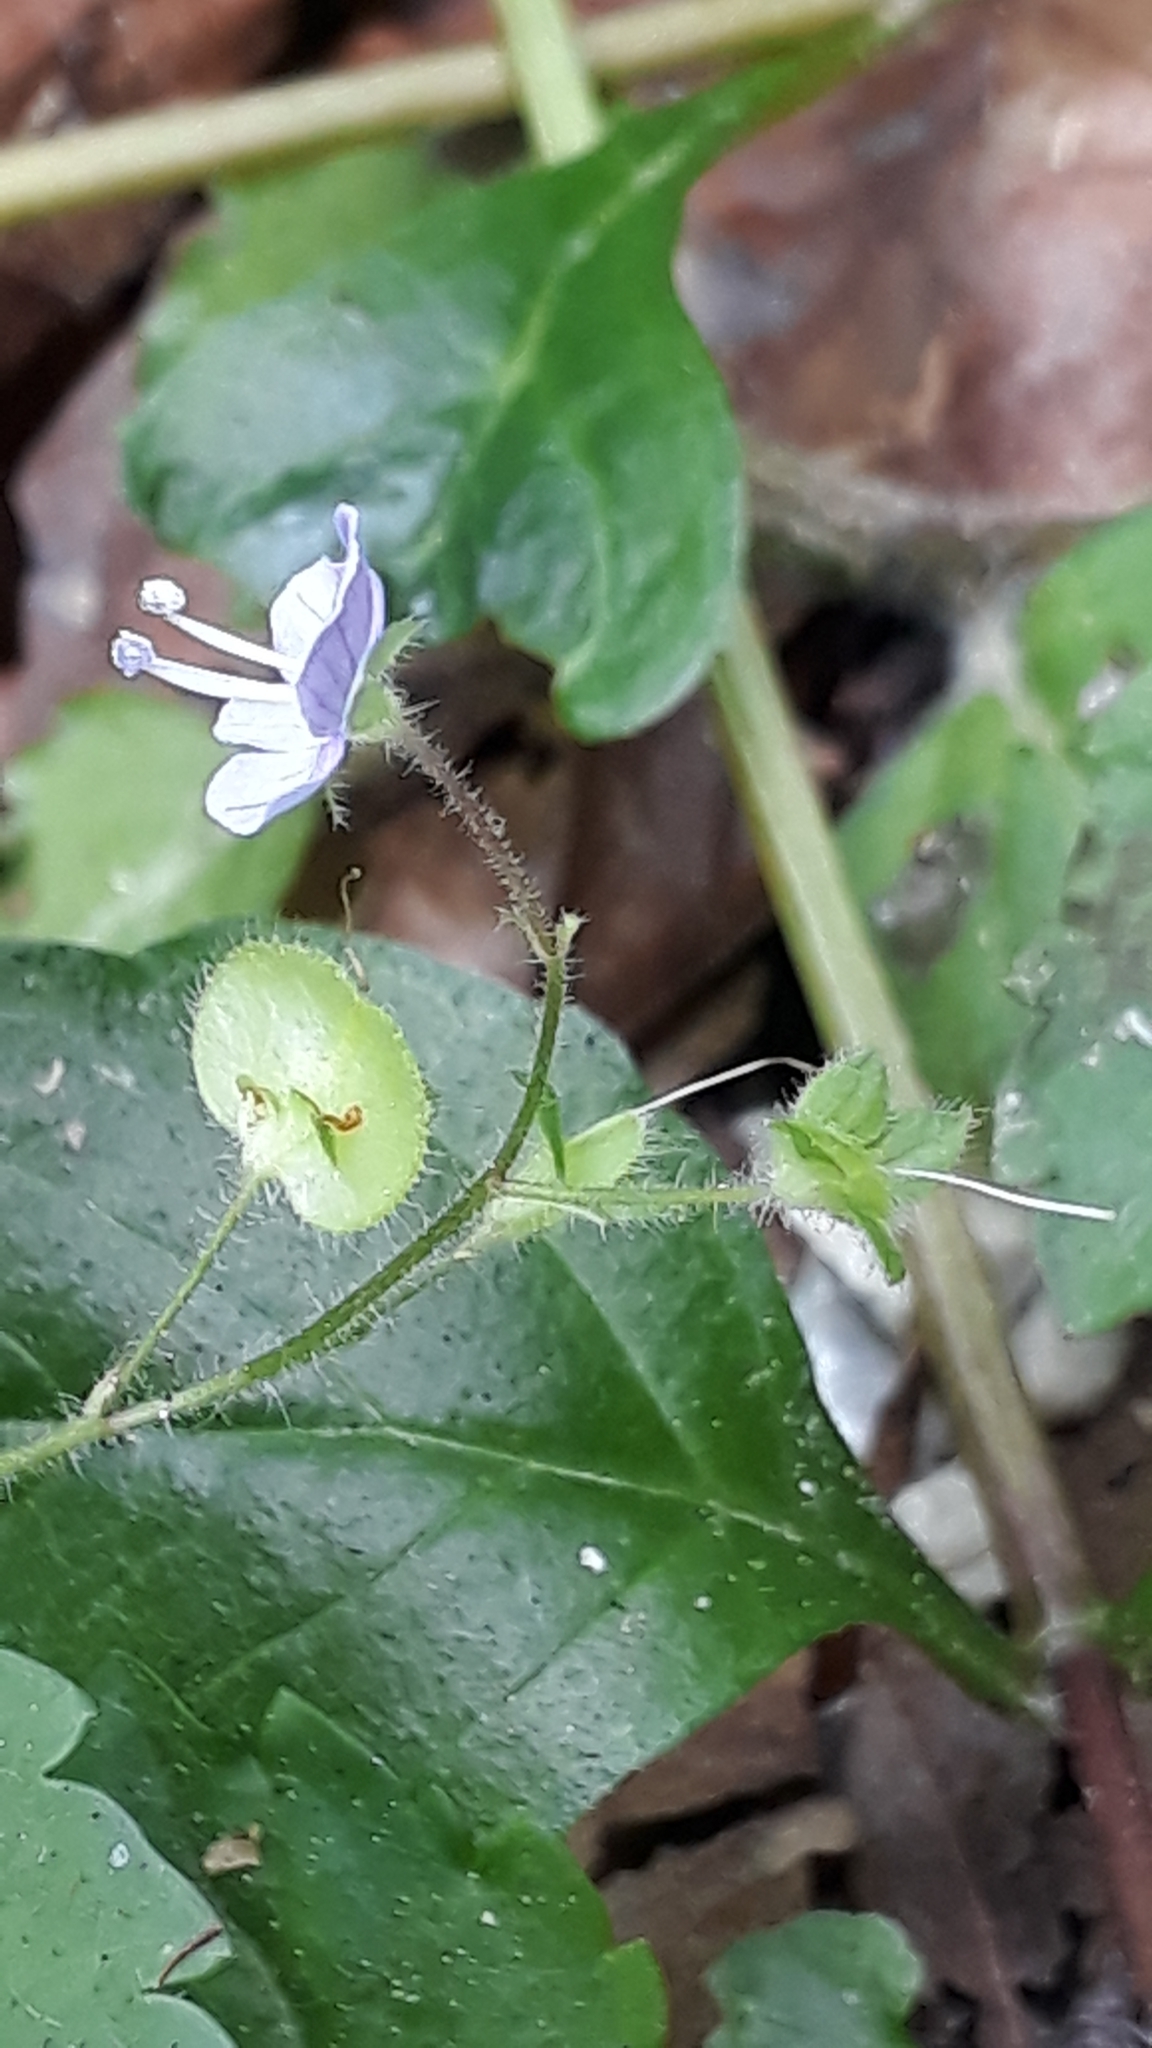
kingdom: Plantae
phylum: Tracheophyta
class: Magnoliopsida
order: Lamiales
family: Plantaginaceae
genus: Veronica
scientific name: Veronica montana
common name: Wood speedwell
